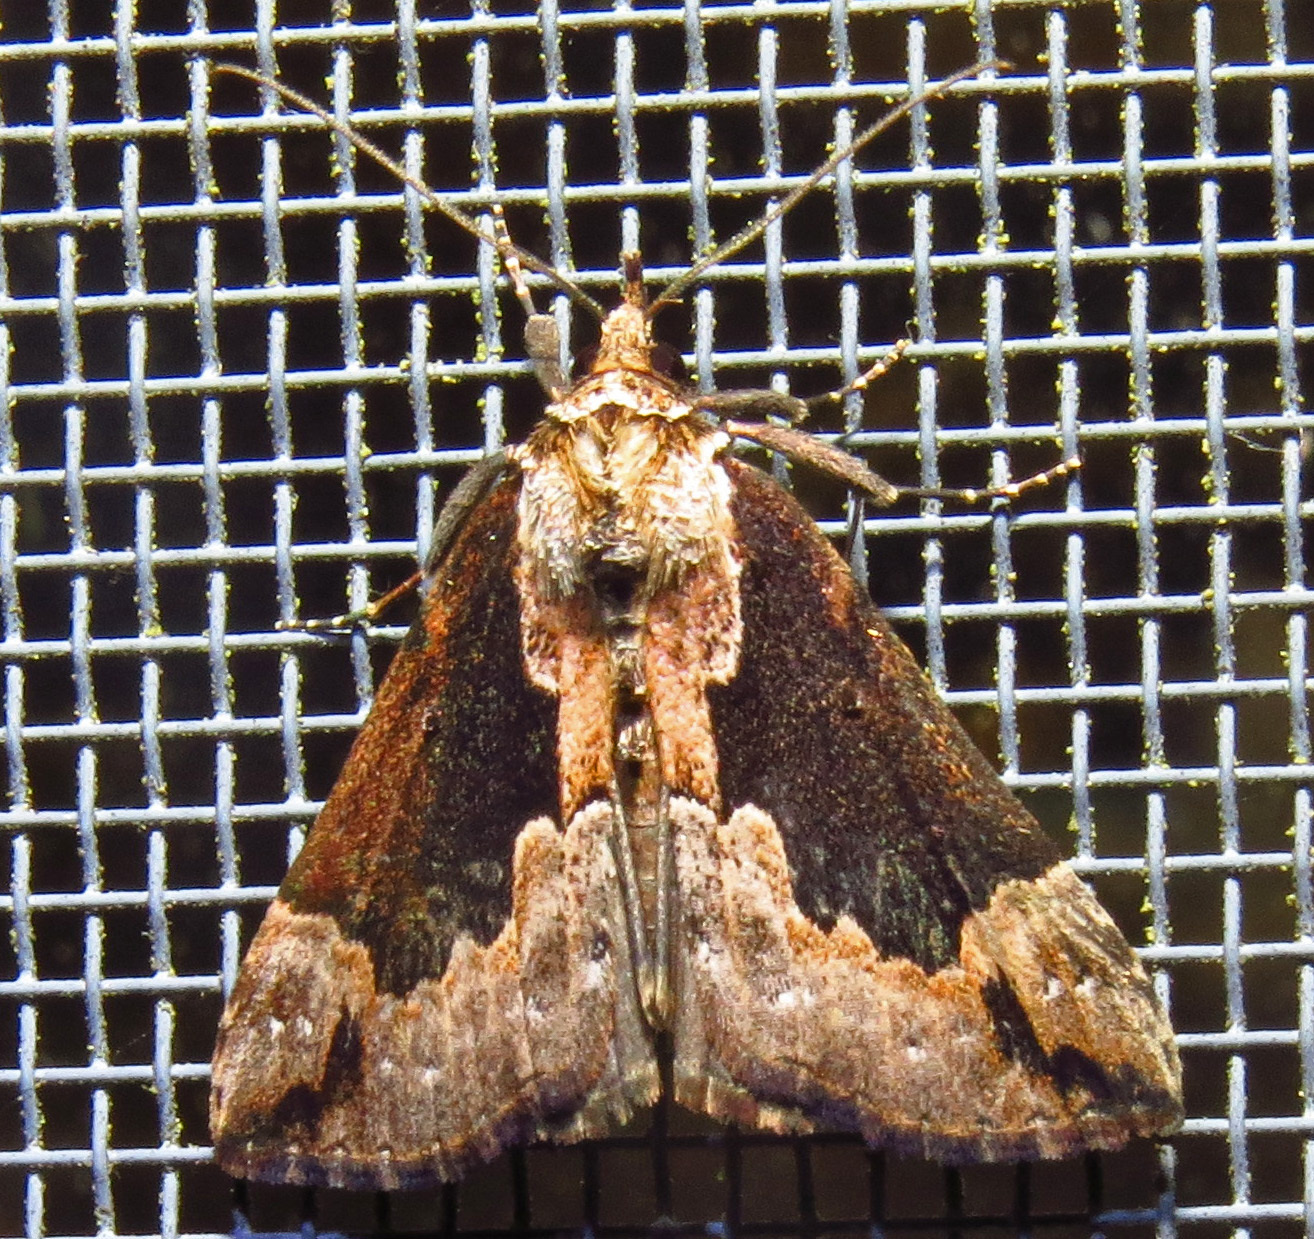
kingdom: Animalia
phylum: Arthropoda
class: Insecta
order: Lepidoptera
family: Erebidae
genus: Hypena
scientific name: Hypena baltimoralis
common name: Baltimore snout
